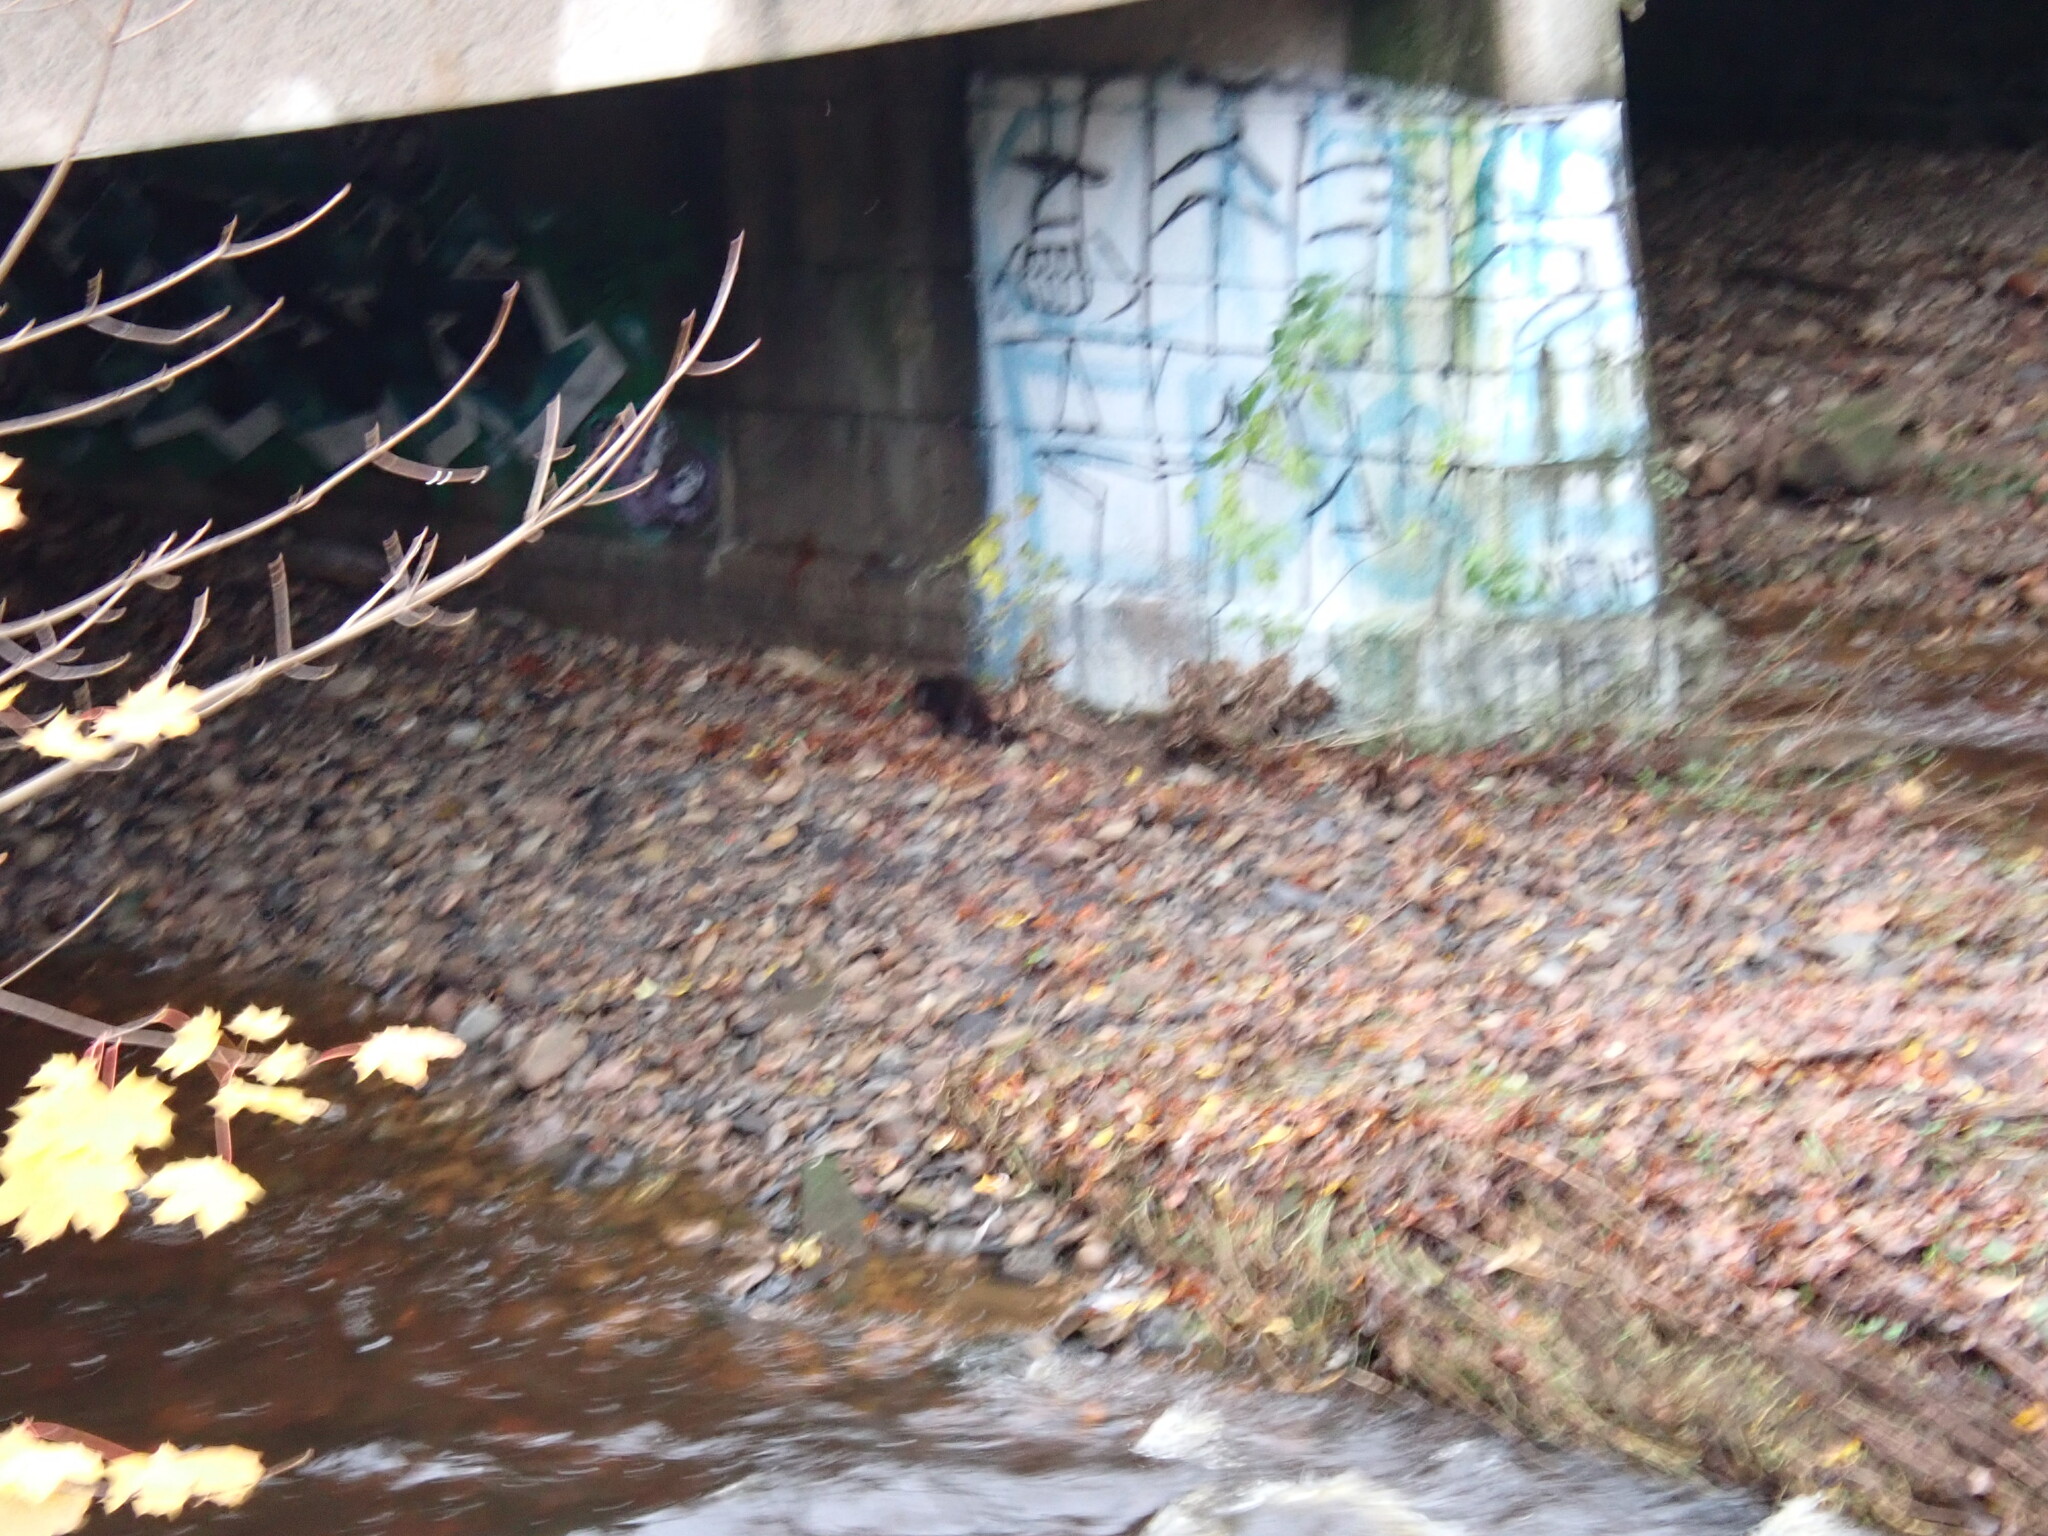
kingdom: Animalia
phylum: Chordata
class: Mammalia
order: Carnivora
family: Mustelidae
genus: Lutra
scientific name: Lutra lutra
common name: European otter
